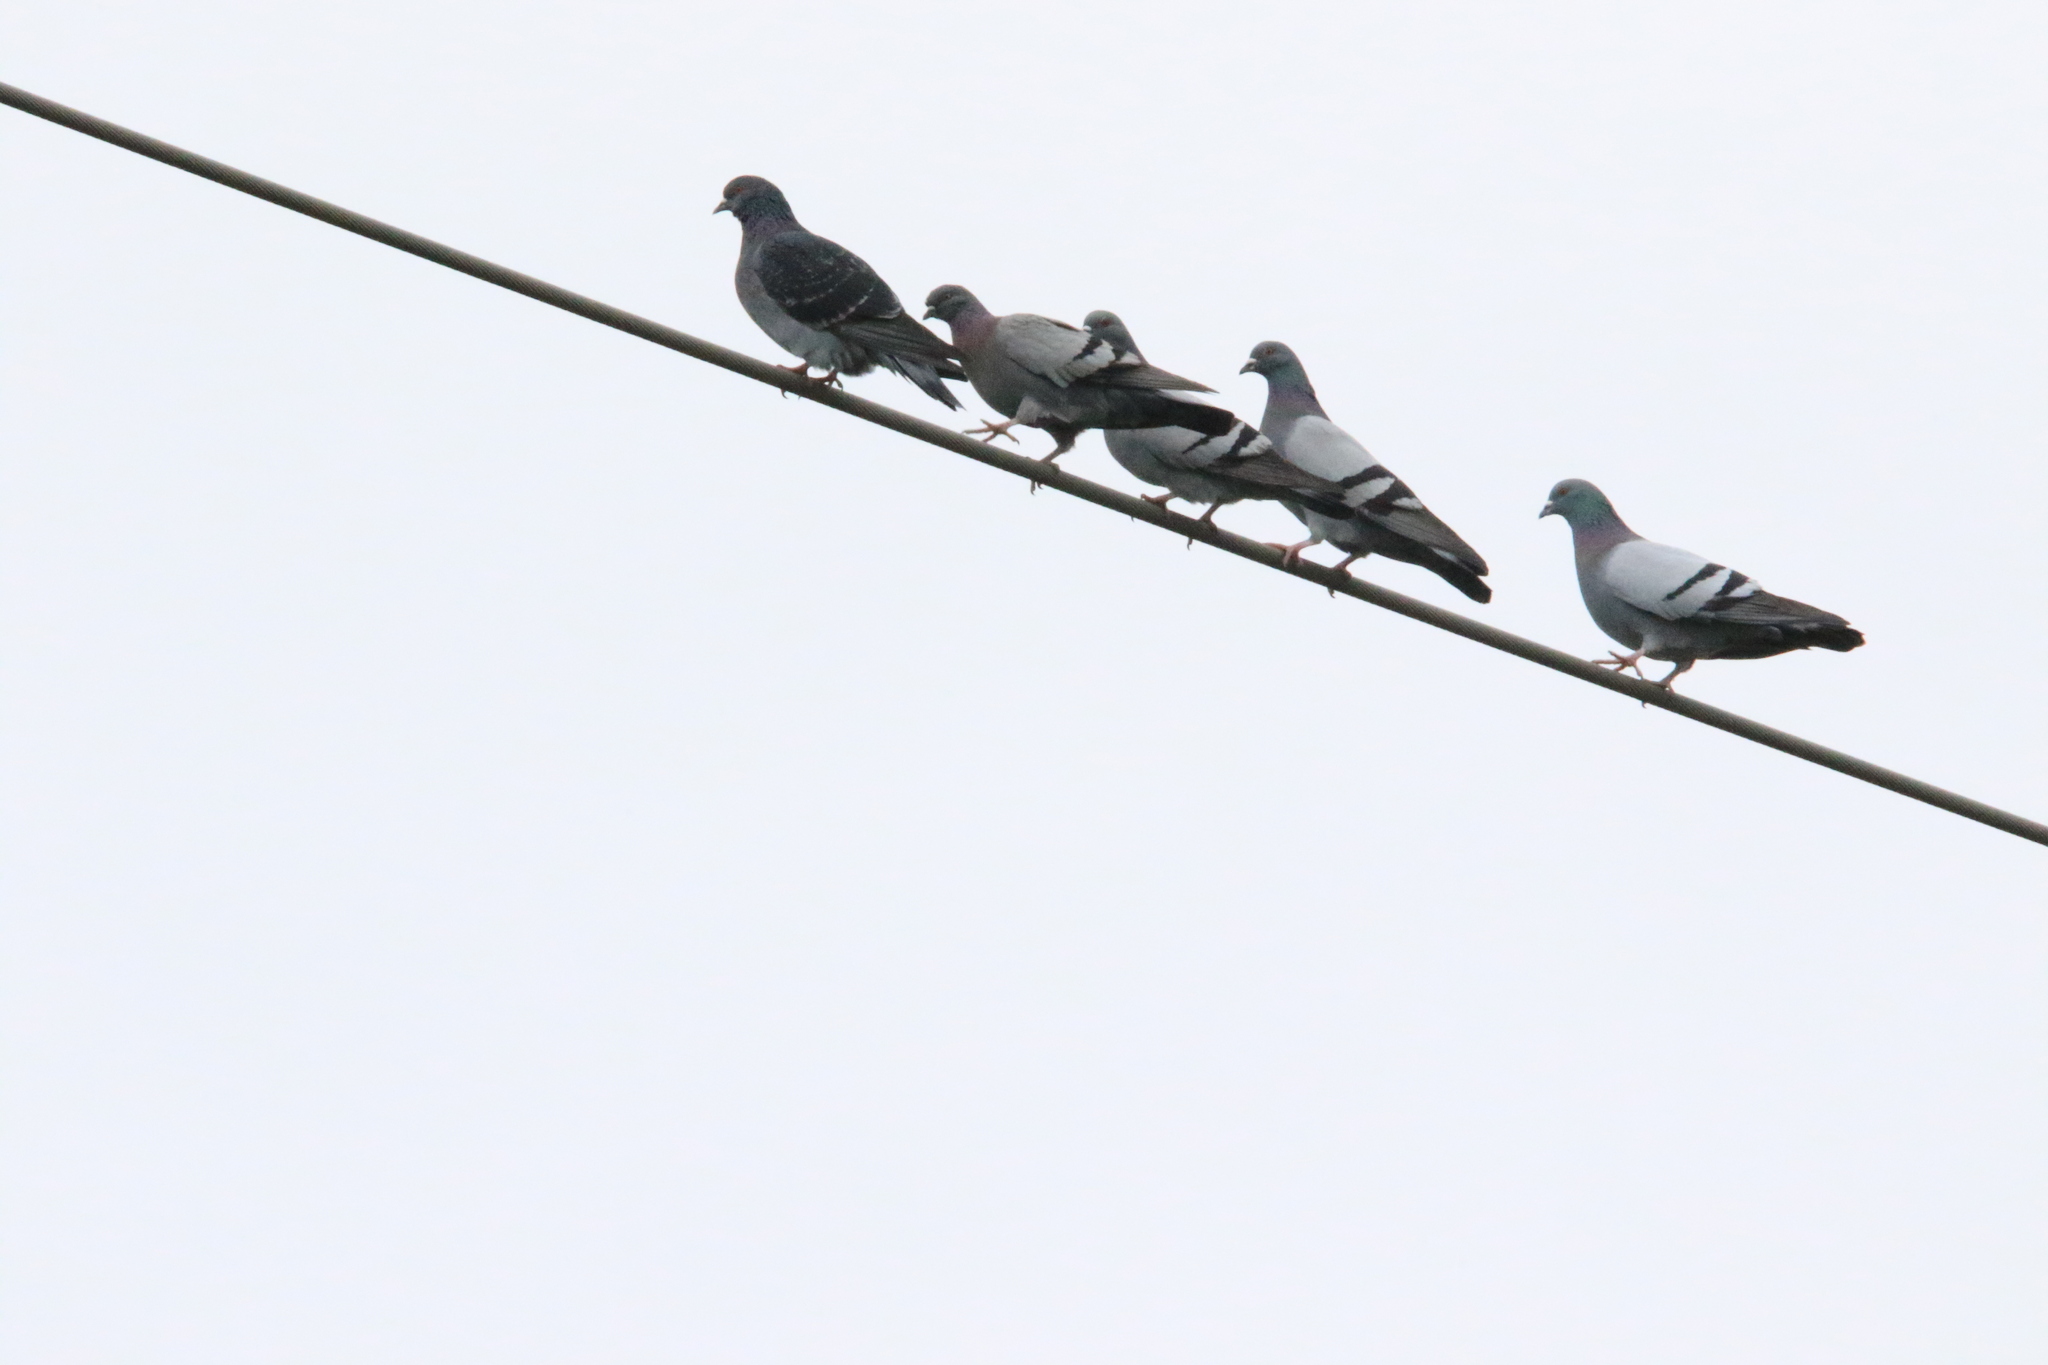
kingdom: Animalia
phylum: Chordata
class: Aves
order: Columbiformes
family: Columbidae
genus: Columba
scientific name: Columba livia
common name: Rock pigeon
